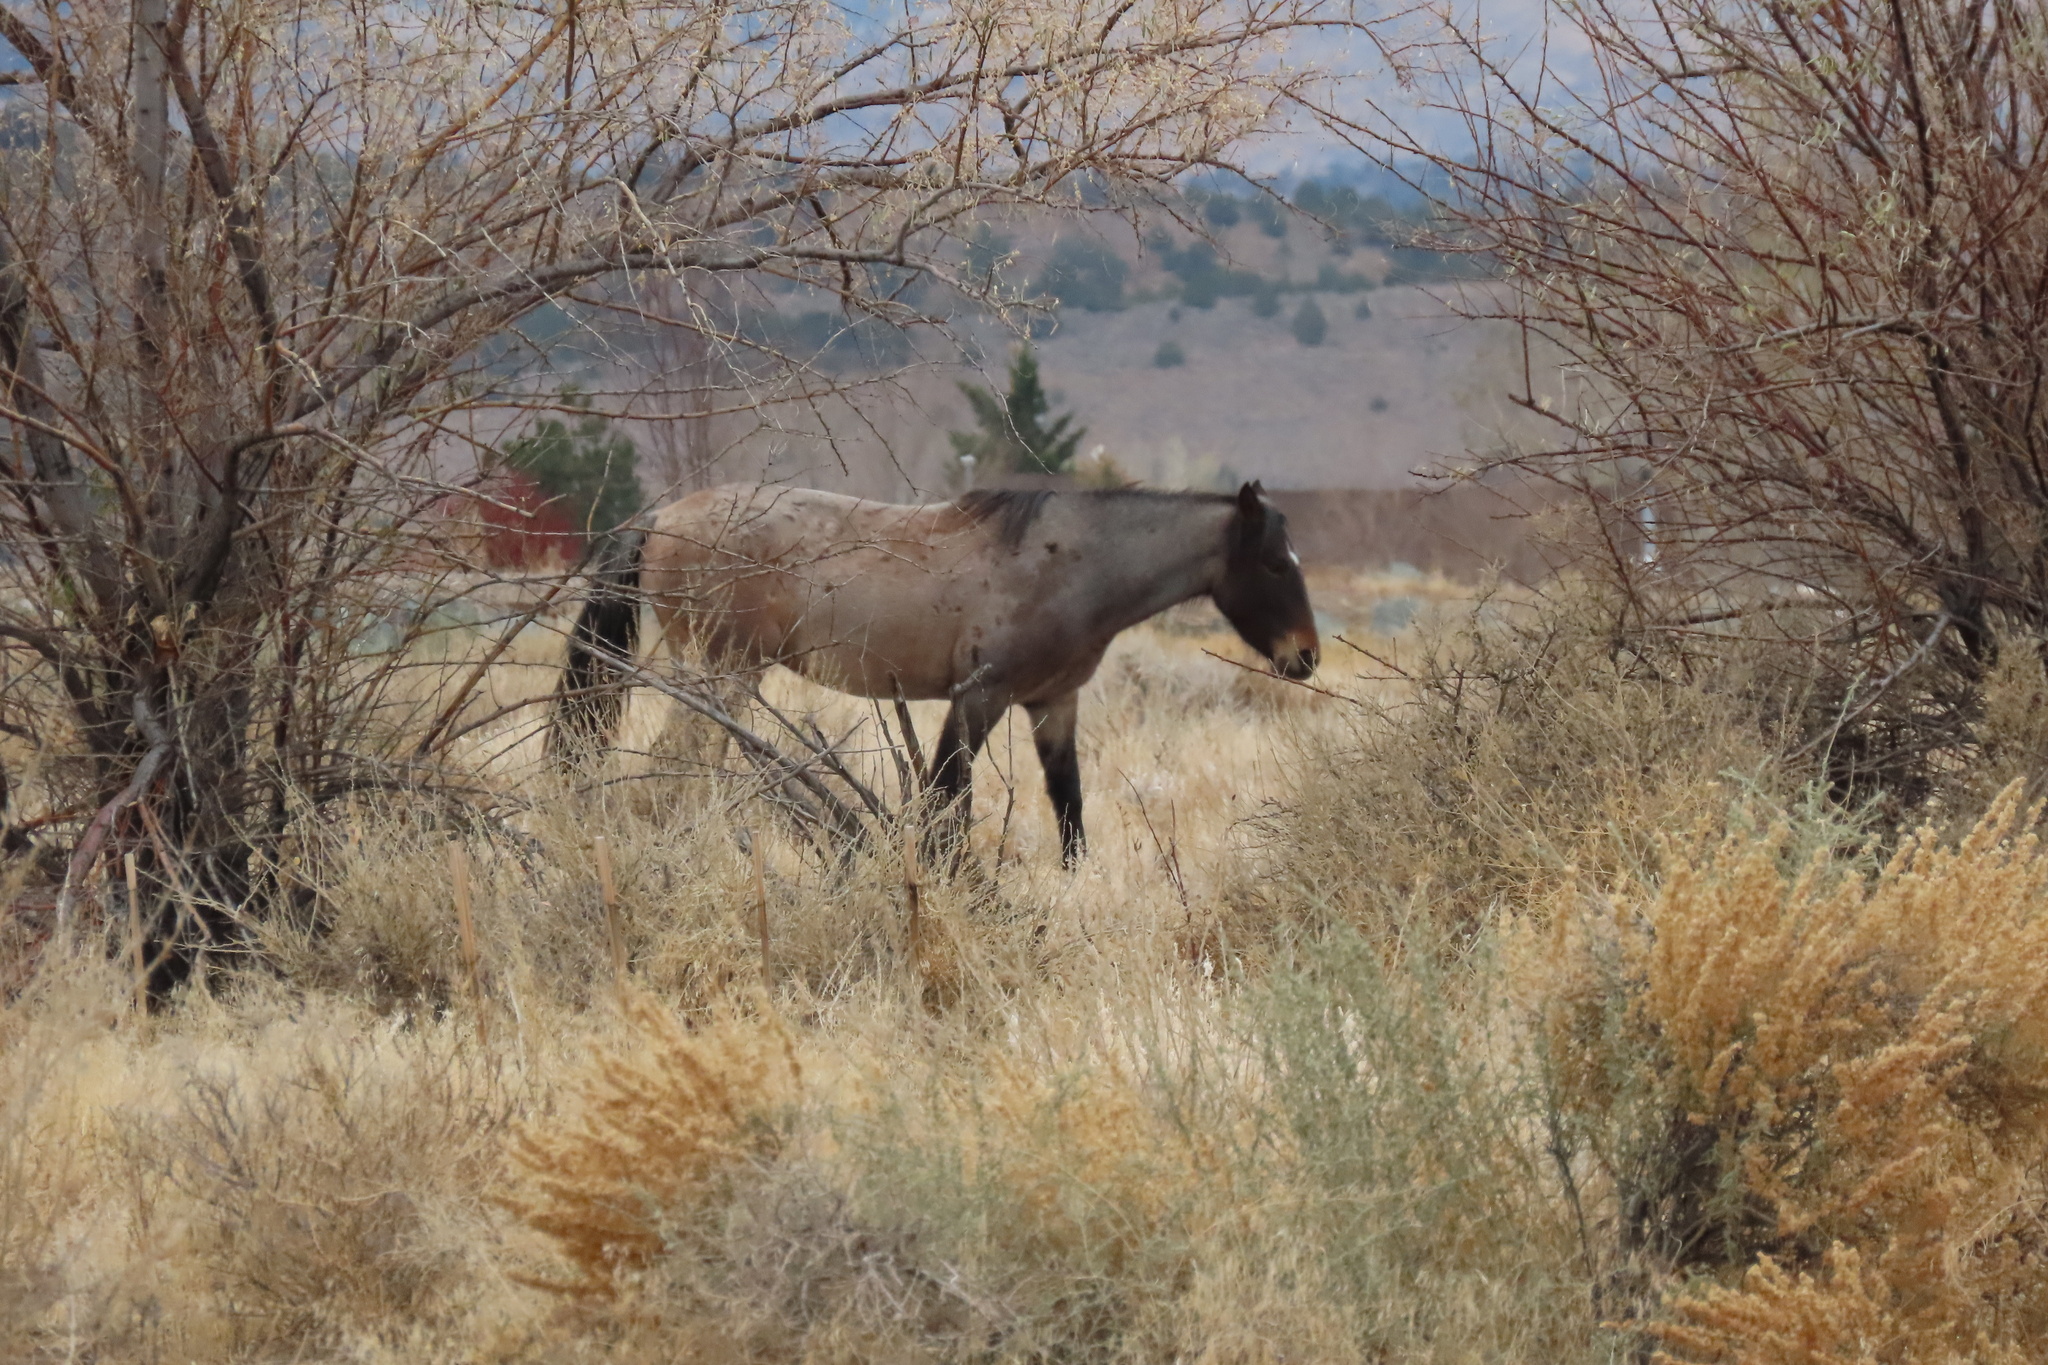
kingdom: Animalia
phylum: Chordata
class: Mammalia
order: Perissodactyla
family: Equidae
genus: Equus
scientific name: Equus caballus
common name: Horse
